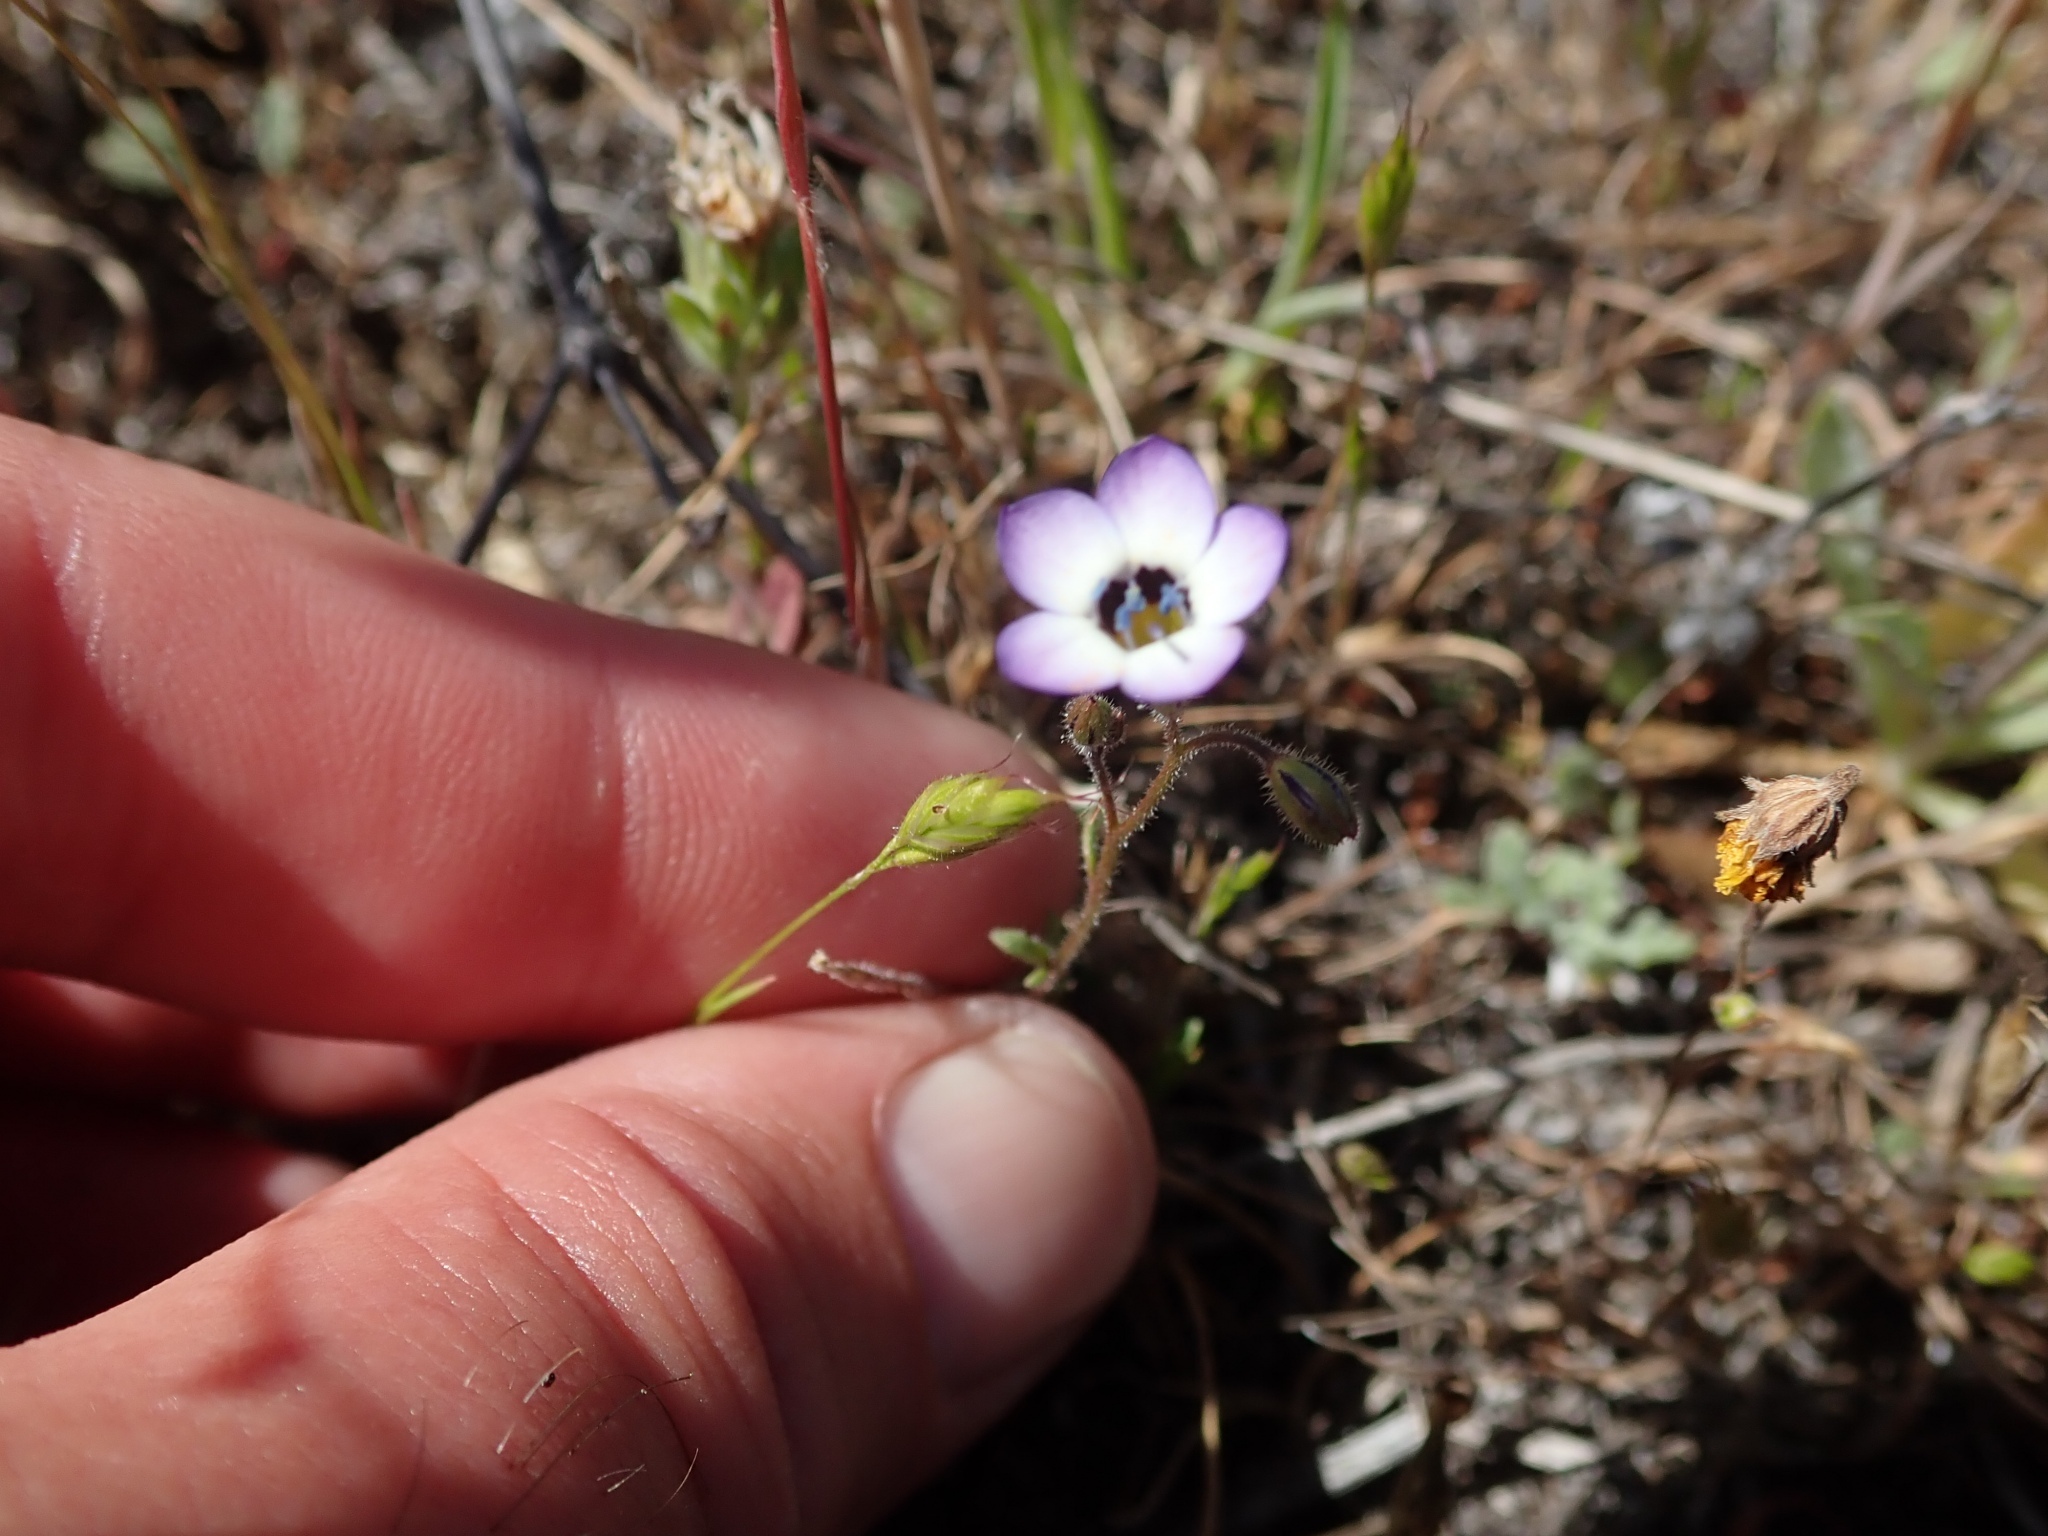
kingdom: Plantae
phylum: Tracheophyta
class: Magnoliopsida
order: Ericales
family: Polemoniaceae
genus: Gilia
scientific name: Gilia tricolor
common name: Bird's-eyes
